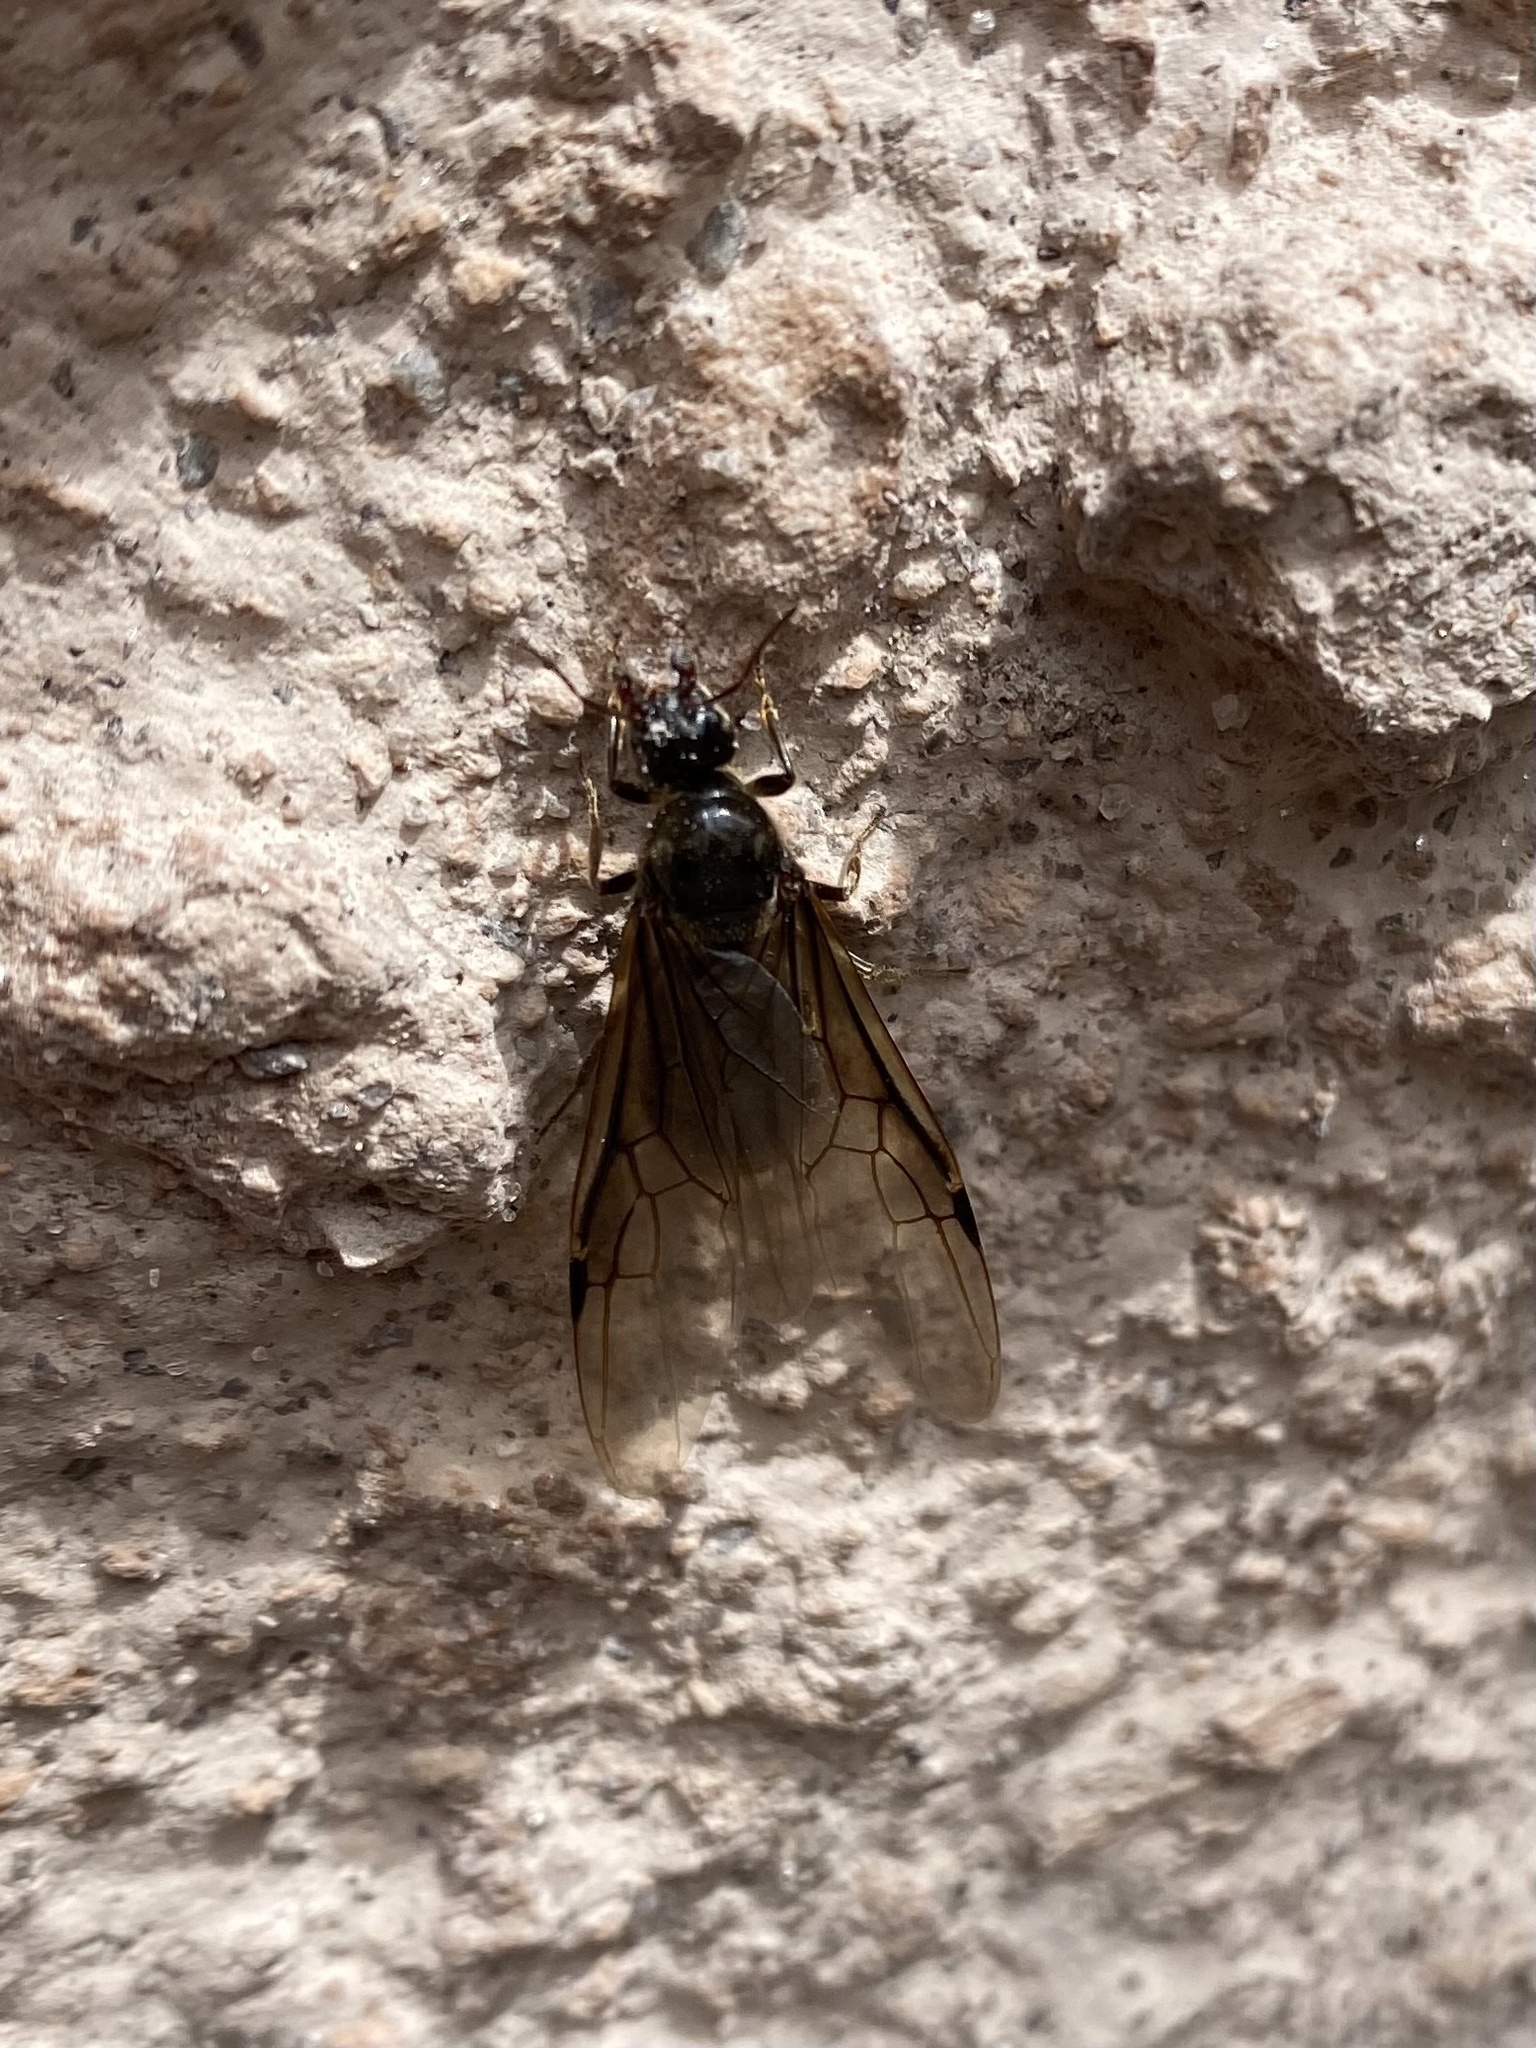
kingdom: Animalia
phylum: Arthropoda
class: Insecta
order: Hymenoptera
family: Formicidae
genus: Liometopum
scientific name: Liometopum apiculatum
